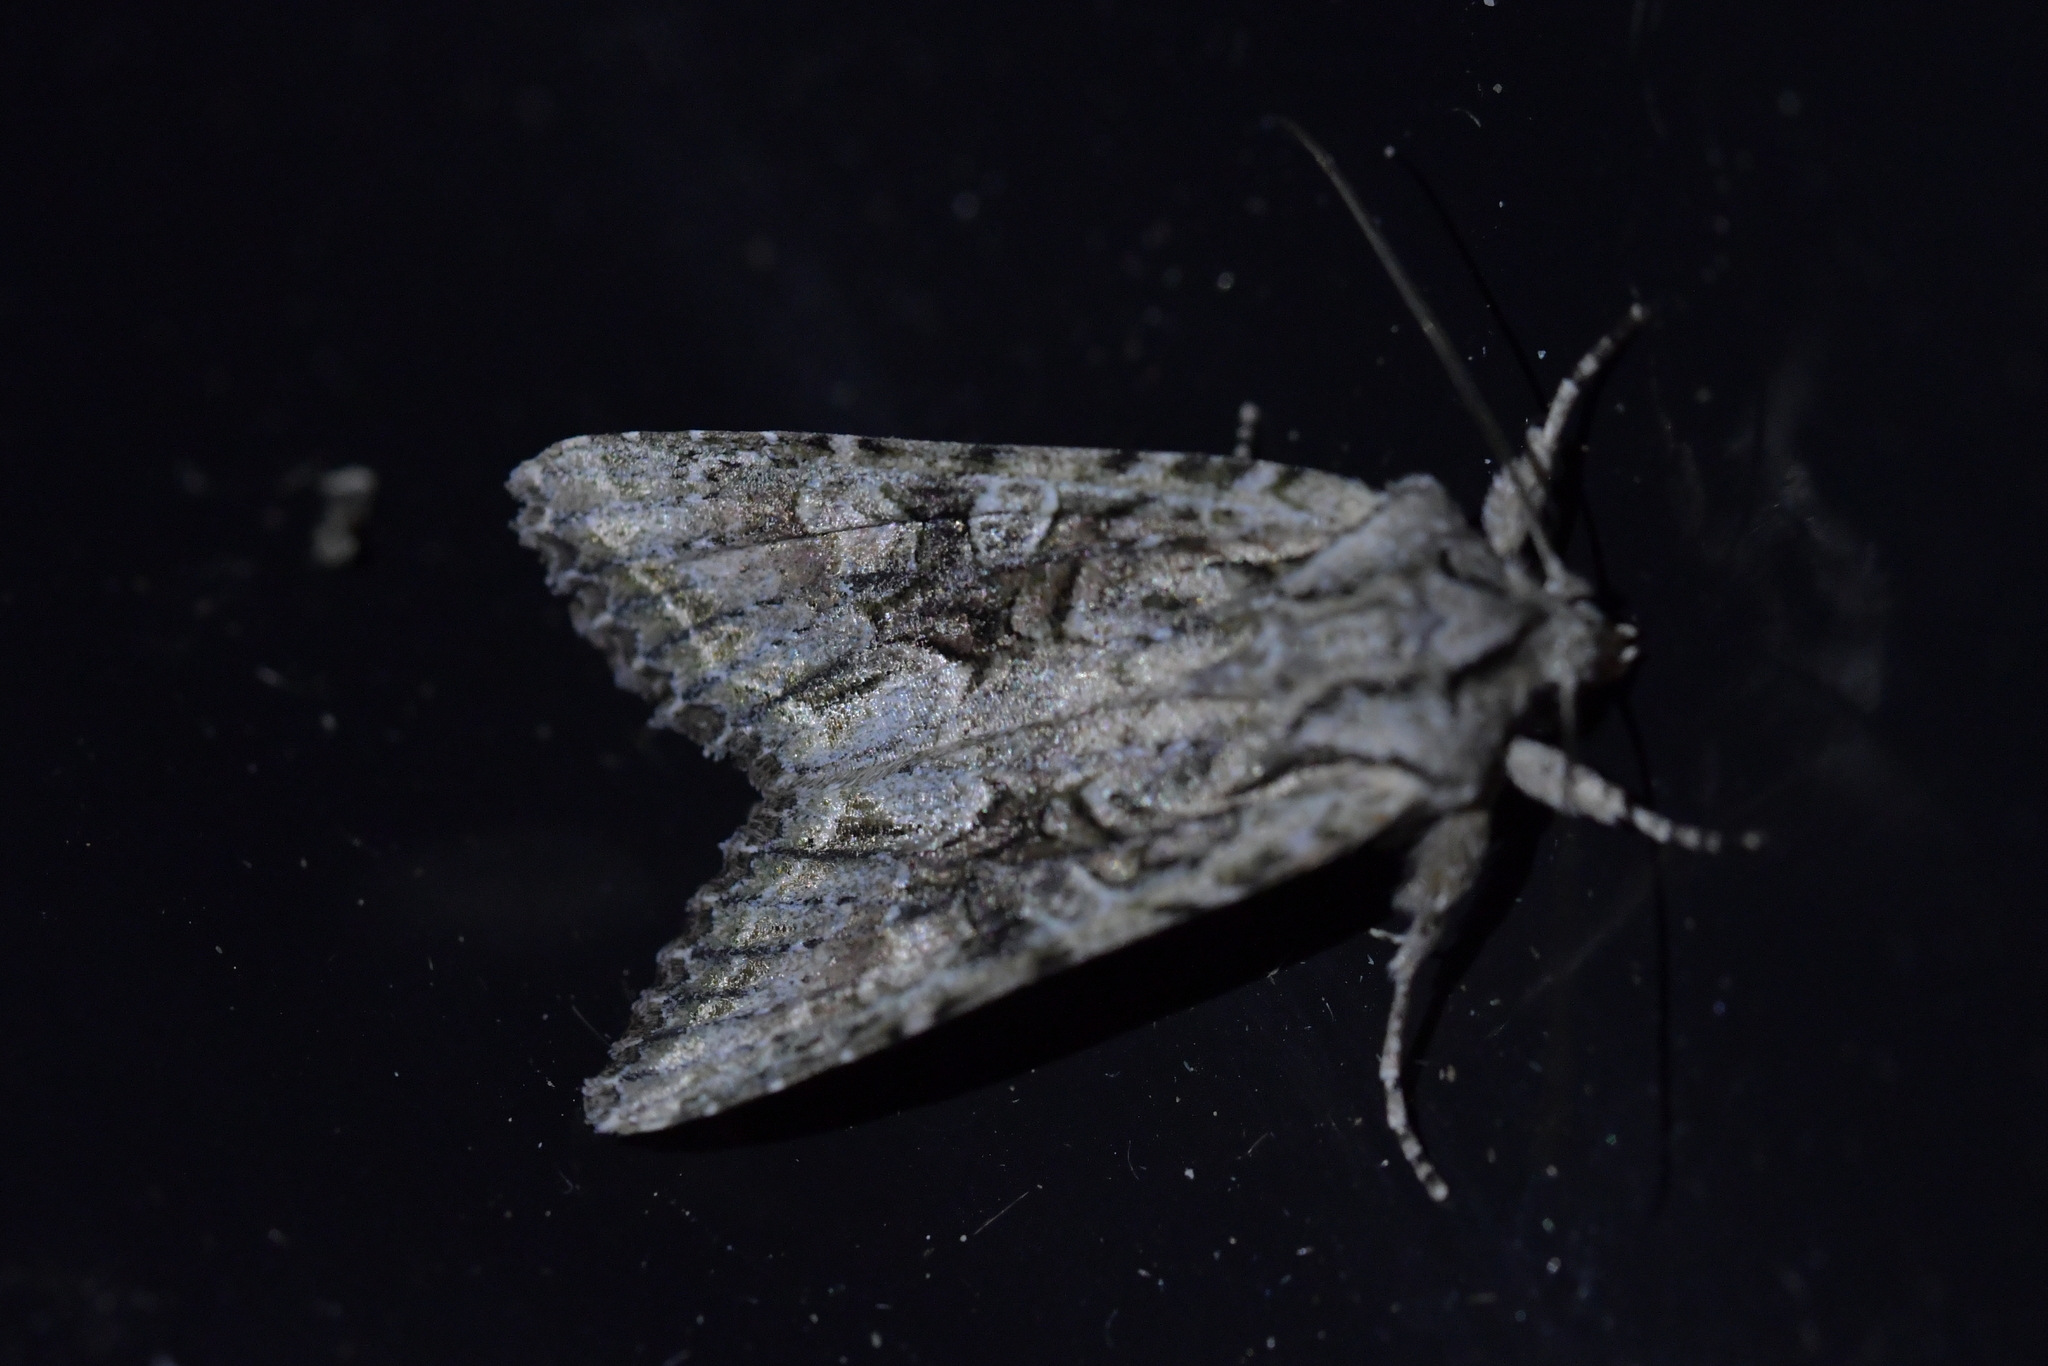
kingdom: Animalia
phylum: Arthropoda
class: Insecta
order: Lepidoptera
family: Noctuidae
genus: Ichneutica
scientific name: Ichneutica mutans
